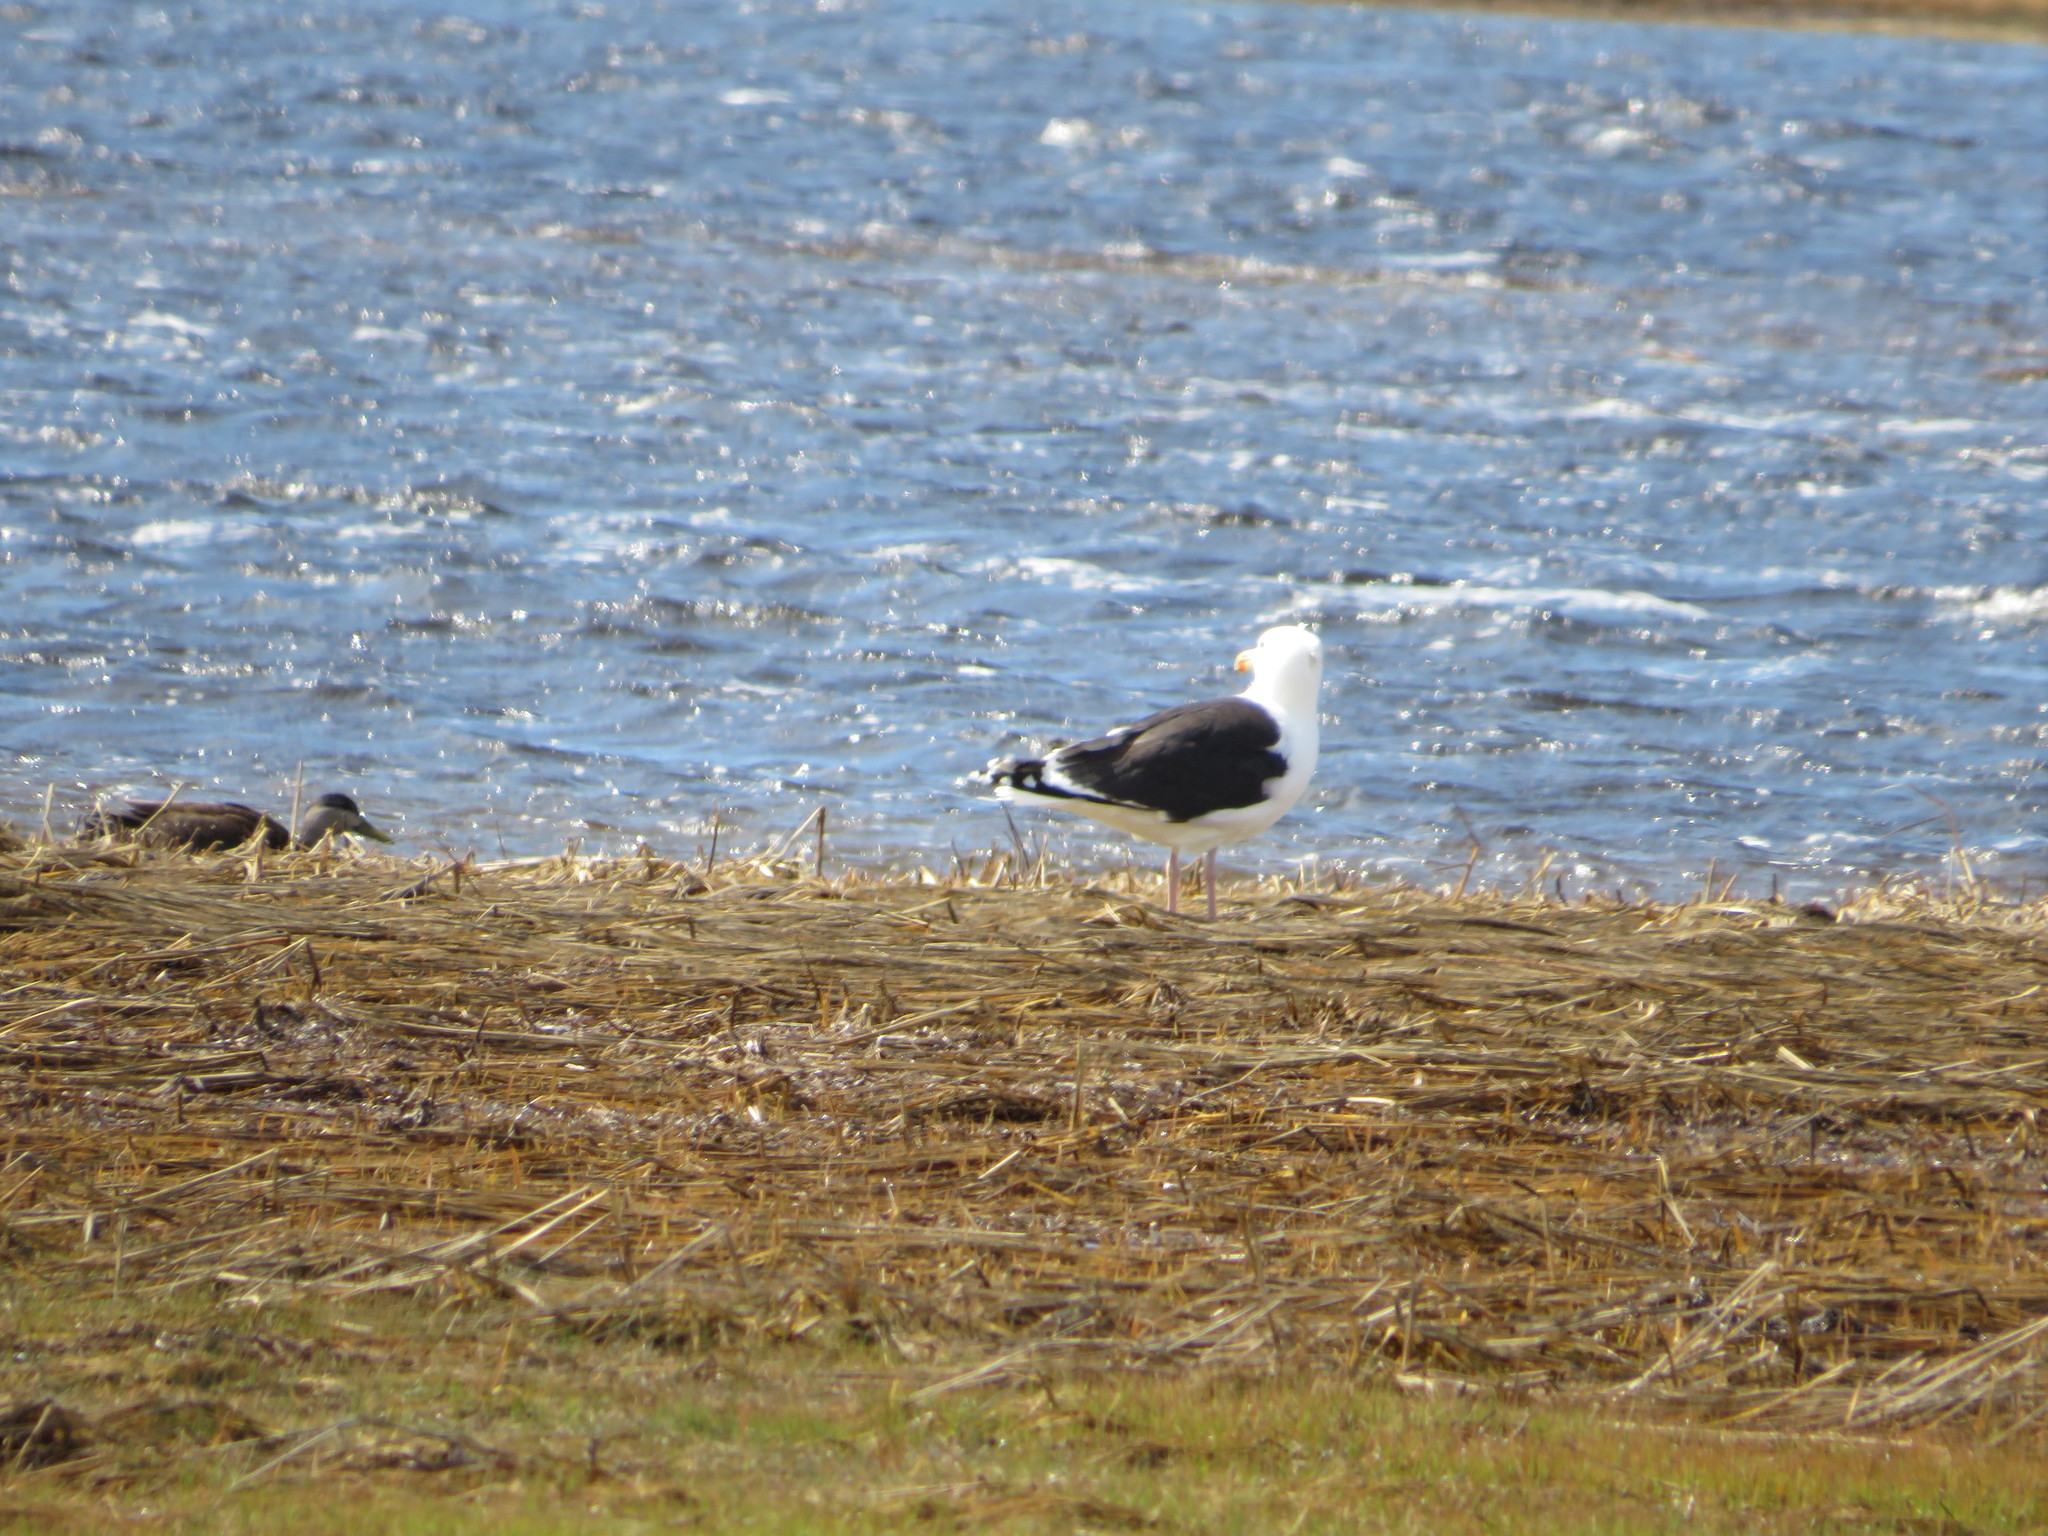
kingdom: Animalia
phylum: Chordata
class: Aves
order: Charadriiformes
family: Laridae
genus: Larus
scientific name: Larus marinus
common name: Great black-backed gull
